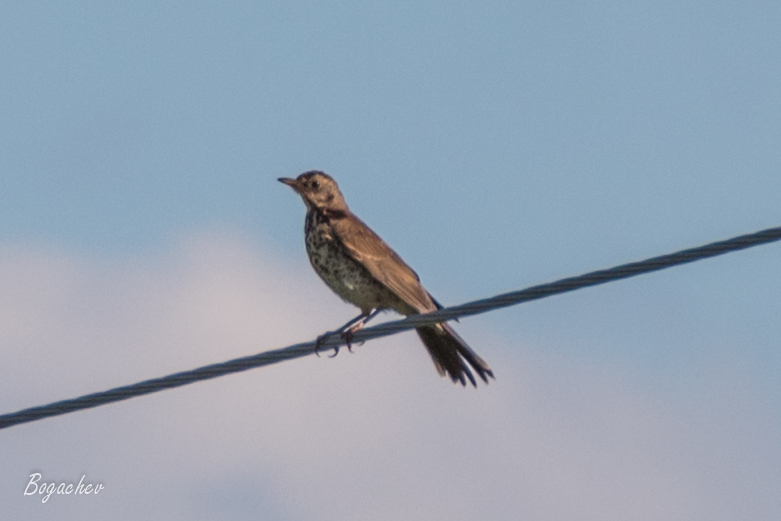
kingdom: Animalia
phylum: Chordata
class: Aves
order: Passeriformes
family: Turdidae
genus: Turdus
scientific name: Turdus pilaris
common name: Fieldfare
